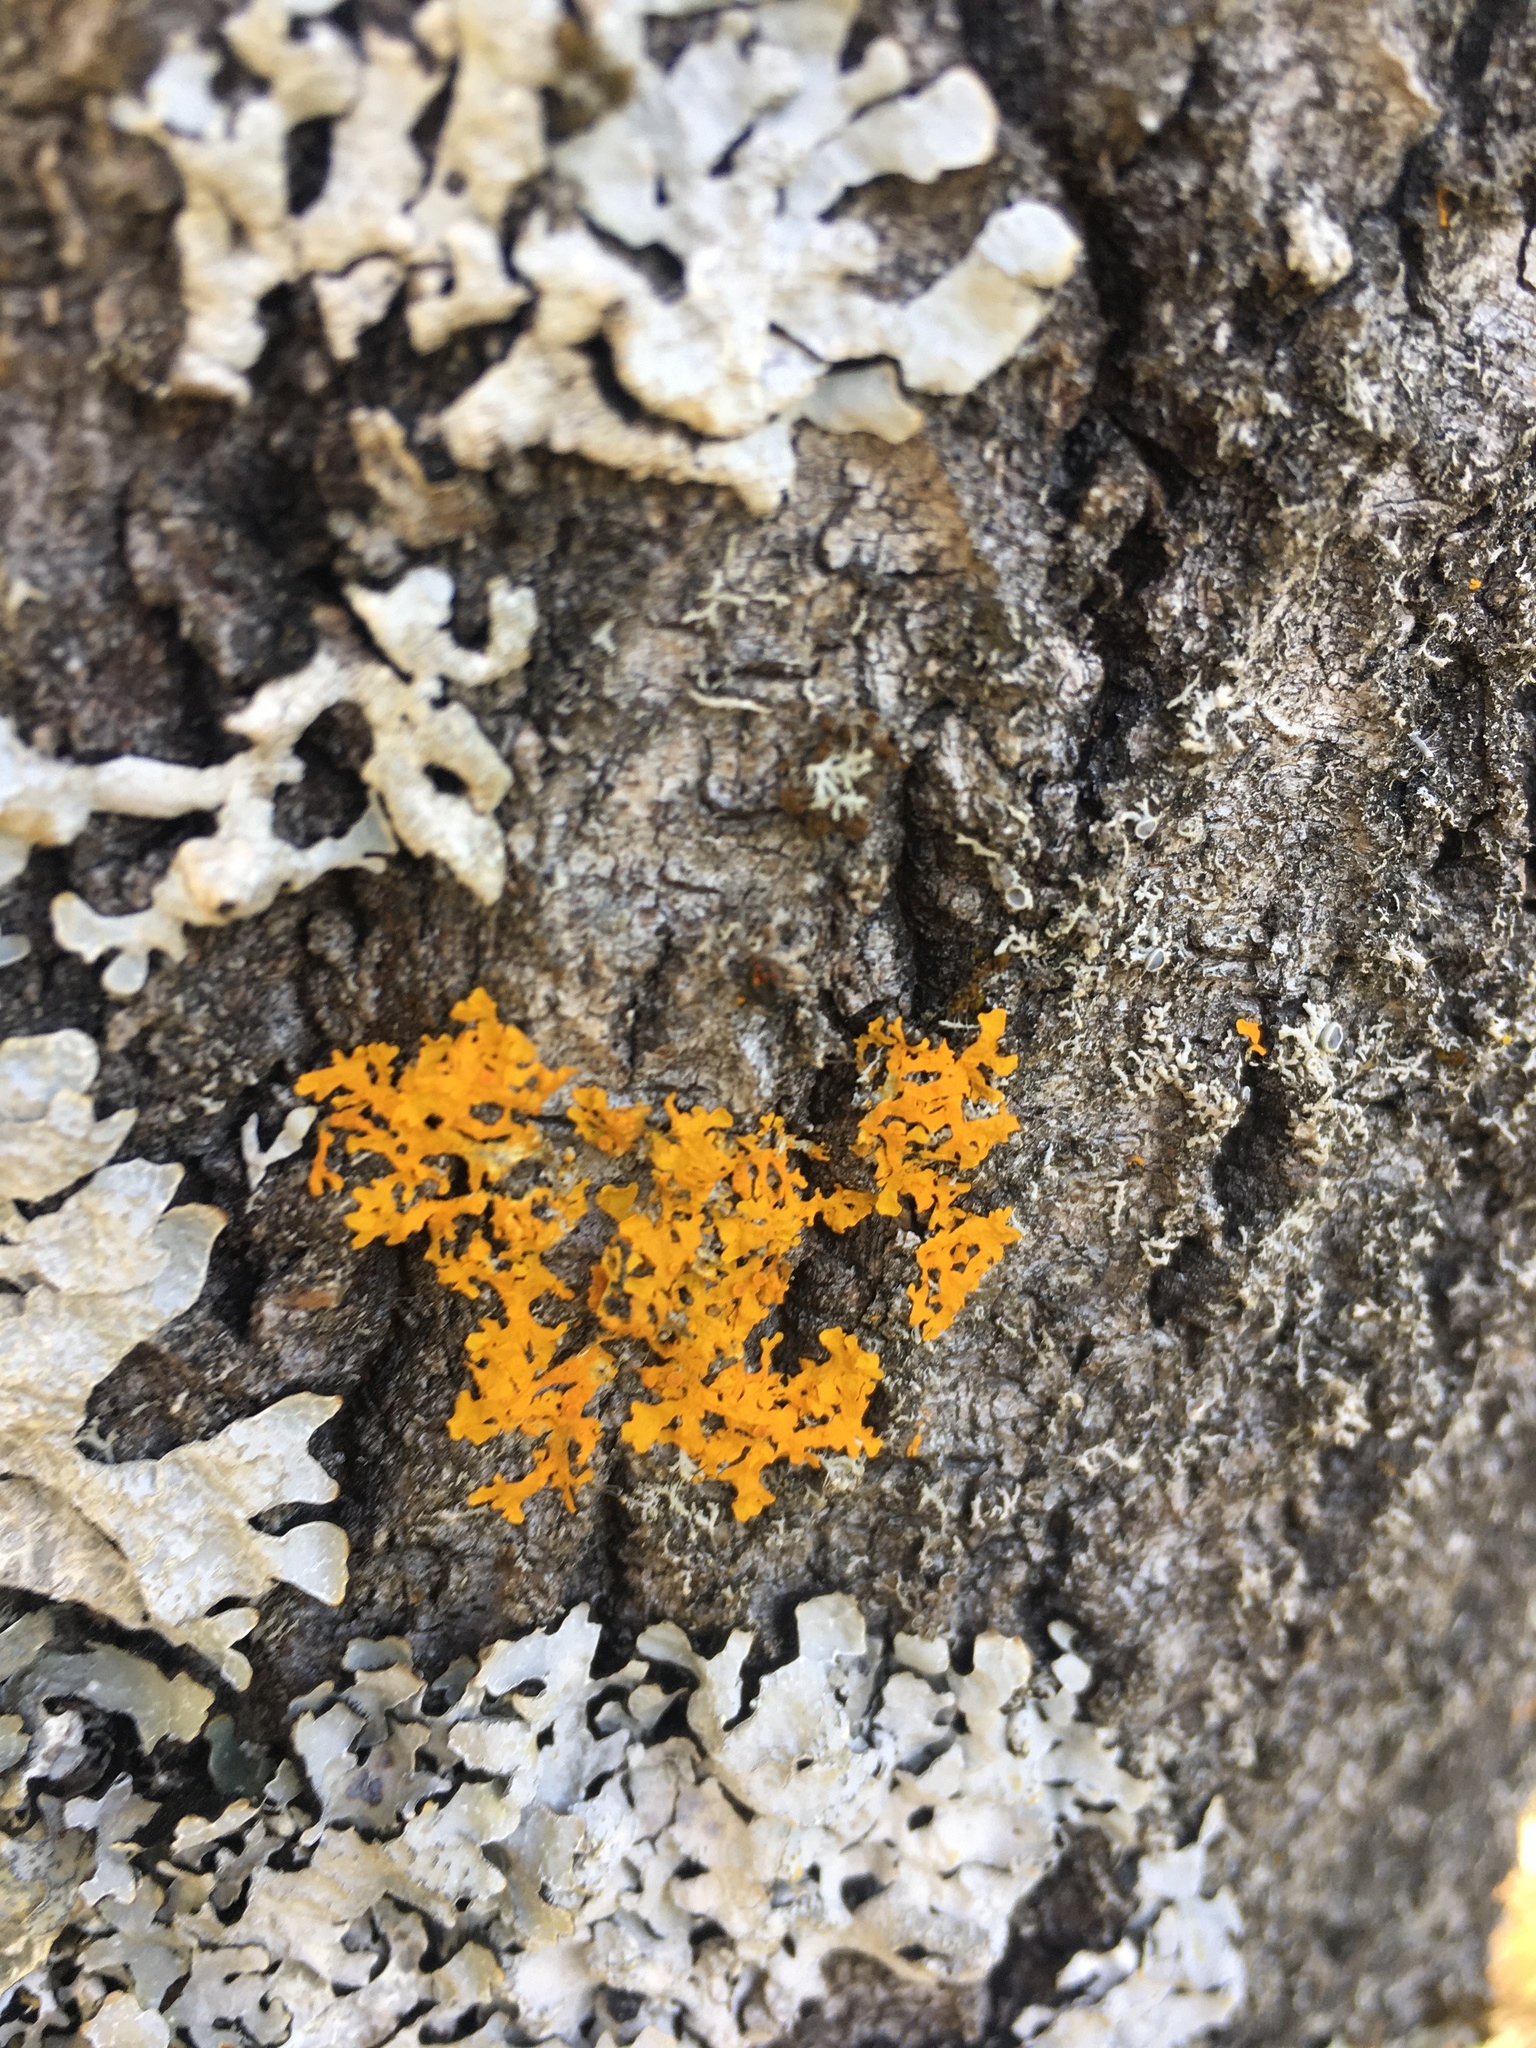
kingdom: Fungi
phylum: Ascomycota
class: Lecanoromycetes
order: Teloschistales
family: Teloschistaceae
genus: Xanthoria
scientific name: Xanthoria parietina
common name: Common orange lichen
